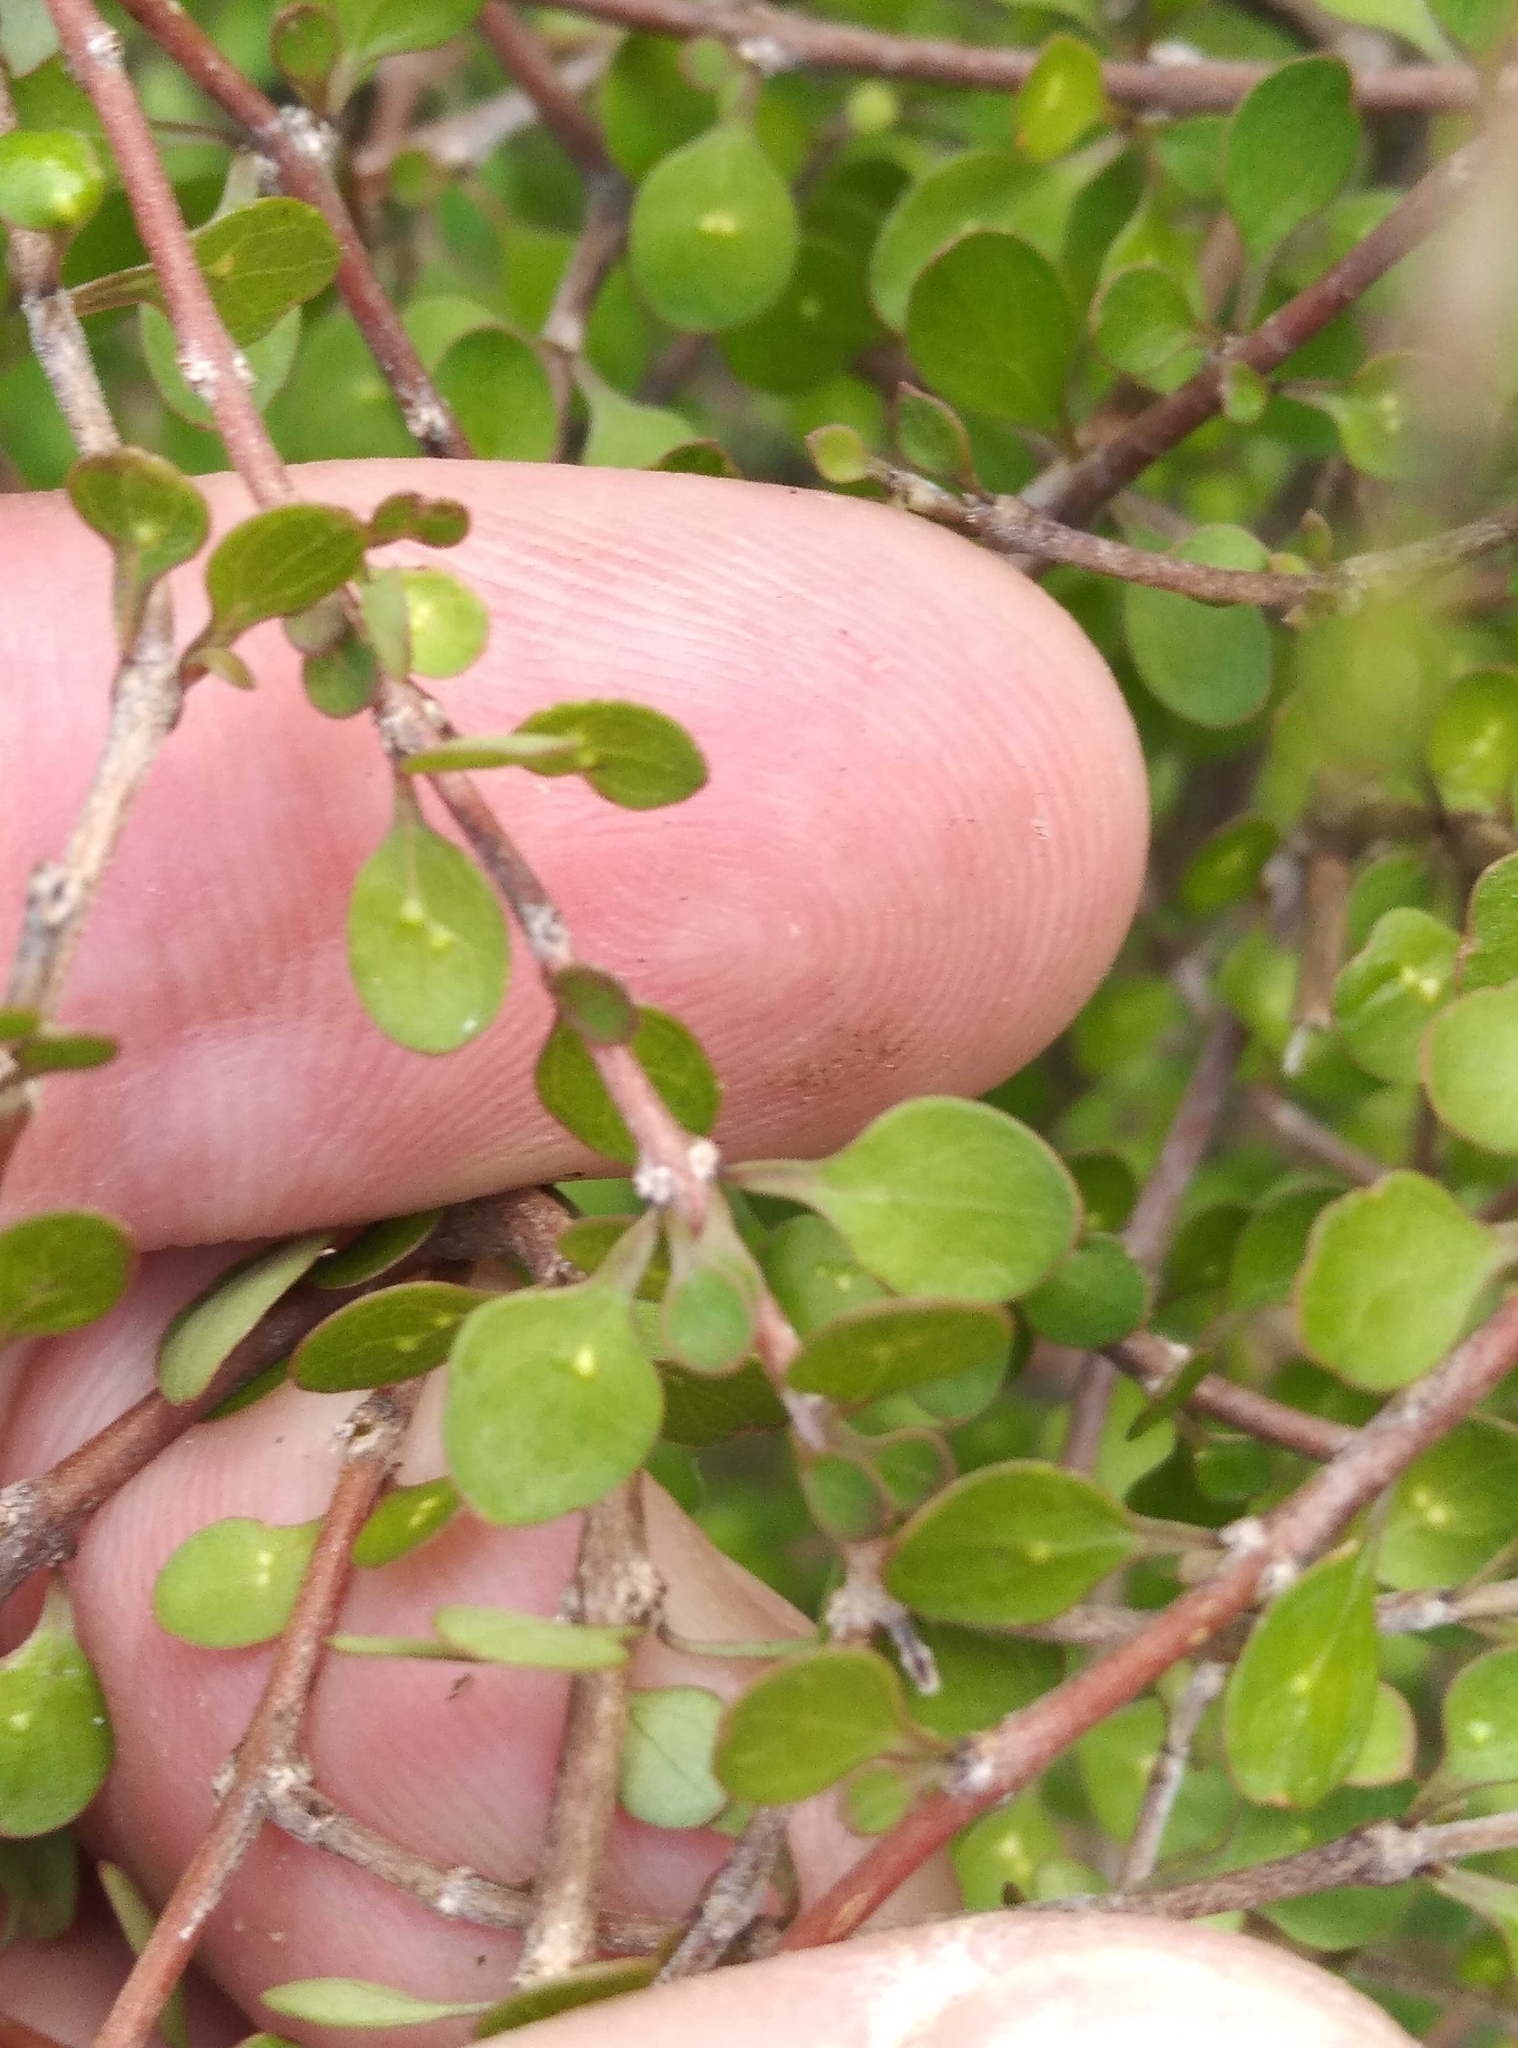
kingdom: Plantae
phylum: Tracheophyta
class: Magnoliopsida
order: Gentianales
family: Rubiaceae
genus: Coprosma
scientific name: Coprosma virescens
